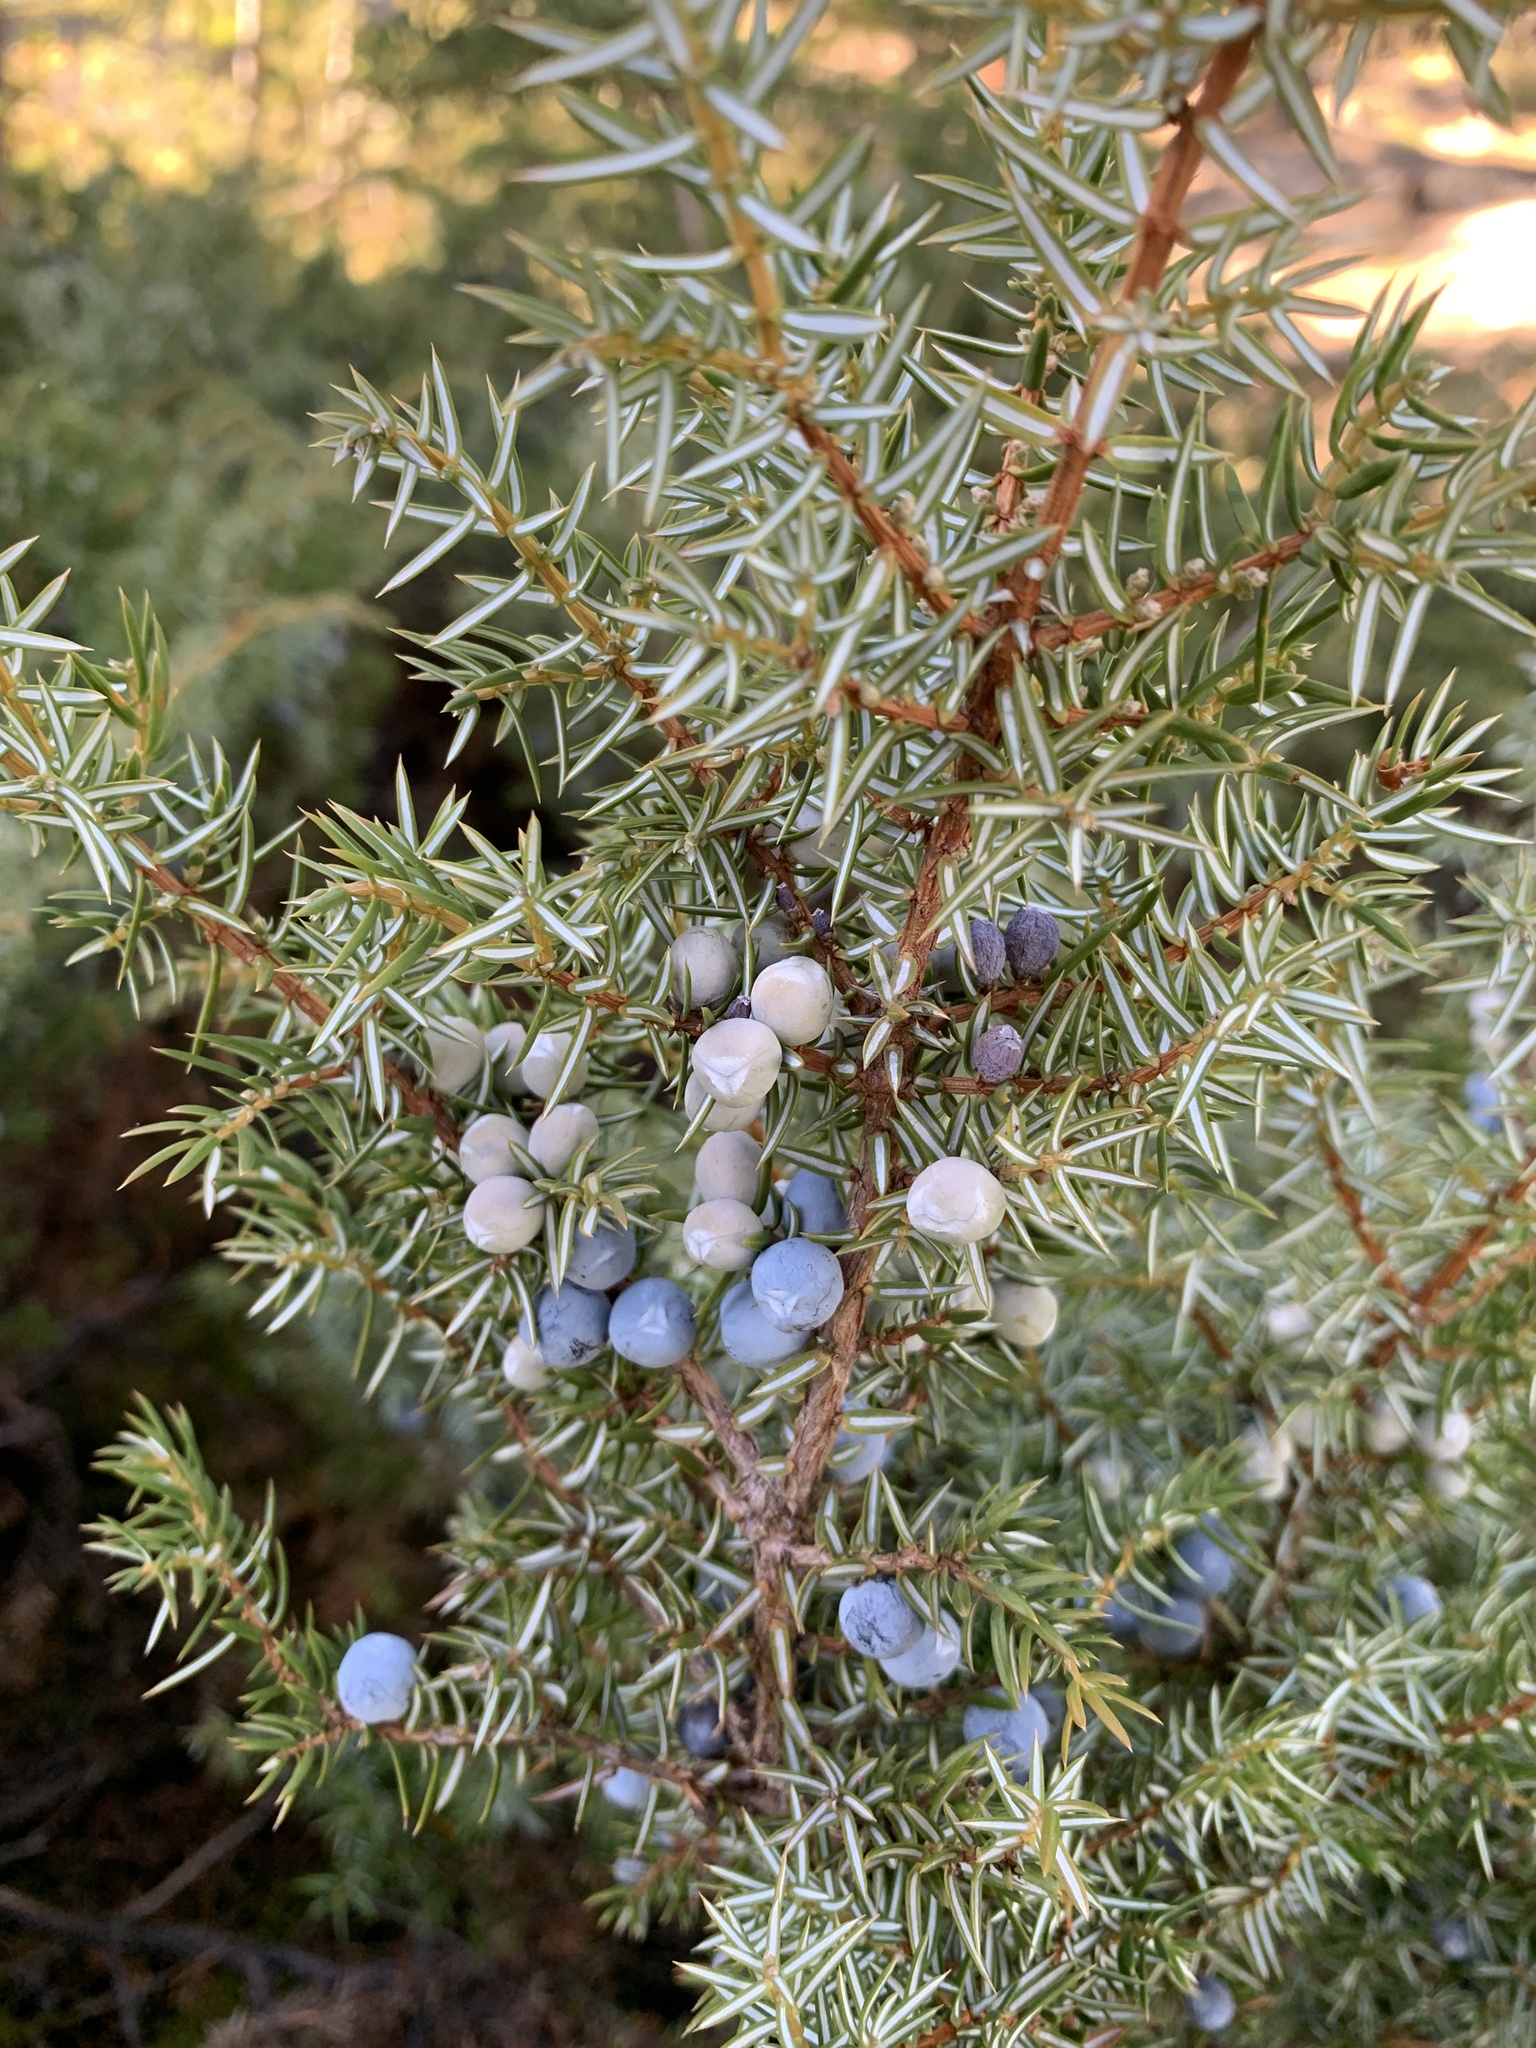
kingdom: Plantae
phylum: Tracheophyta
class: Pinopsida
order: Pinales
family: Cupressaceae
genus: Juniperus
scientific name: Juniperus communis
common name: Common juniper
